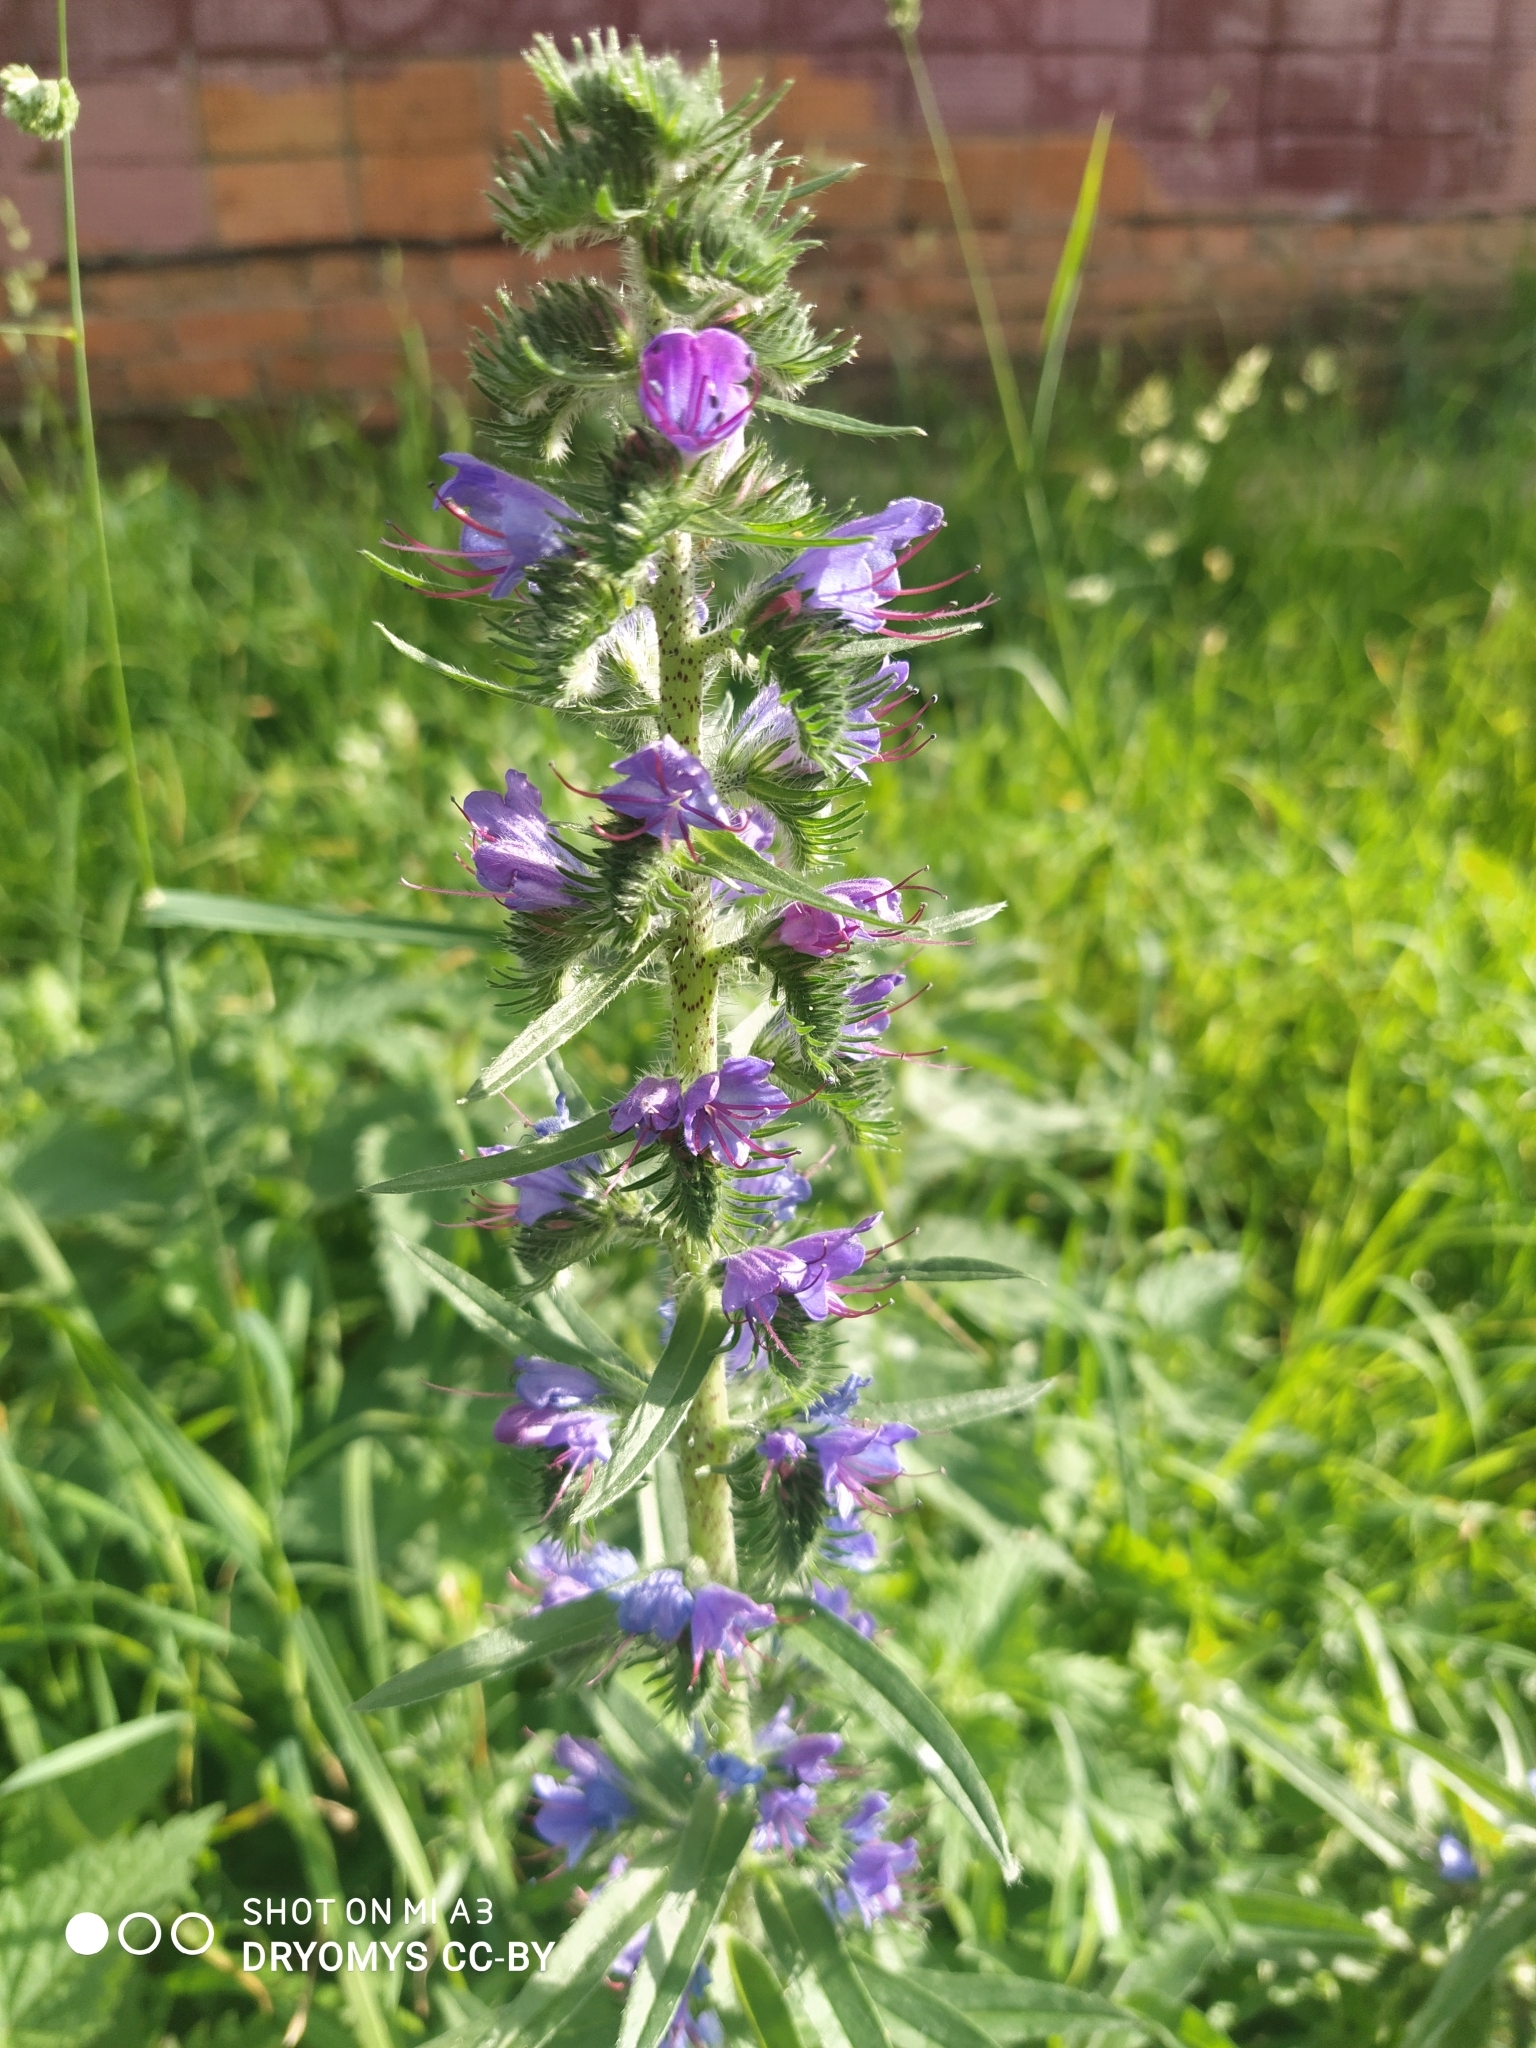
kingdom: Plantae
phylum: Tracheophyta
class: Magnoliopsida
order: Boraginales
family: Boraginaceae
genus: Echium
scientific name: Echium vulgare
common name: Common viper's bugloss
